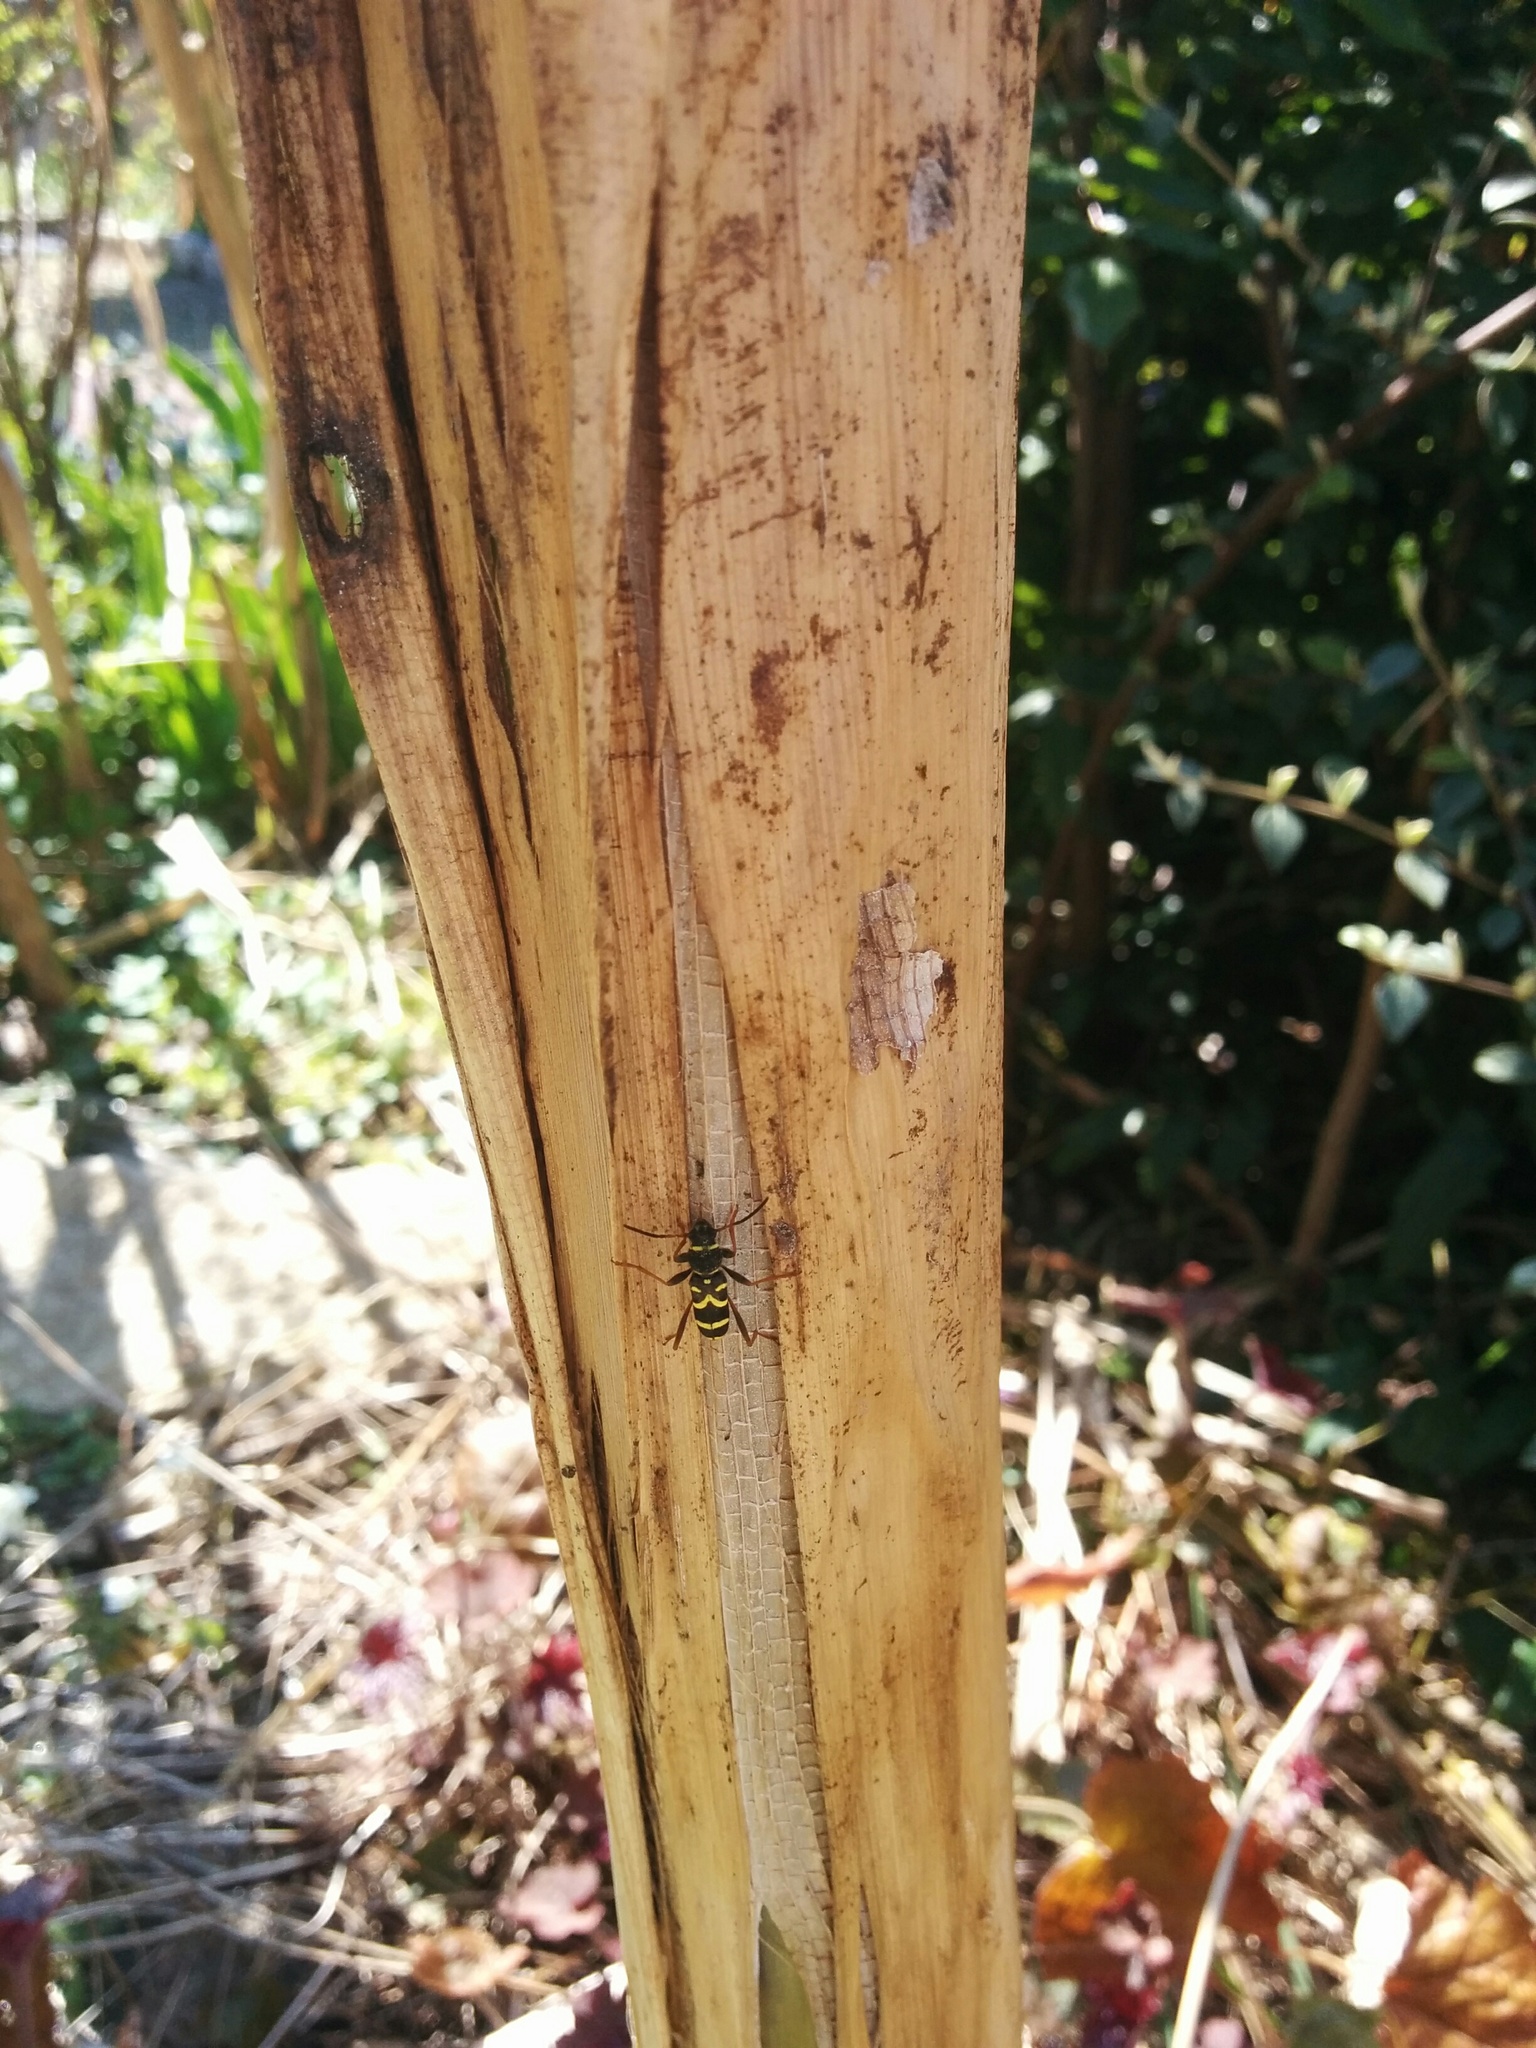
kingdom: Animalia
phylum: Arthropoda
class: Insecta
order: Coleoptera
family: Cerambycidae
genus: Clytus
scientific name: Clytus arietis
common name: Wasp beetle
